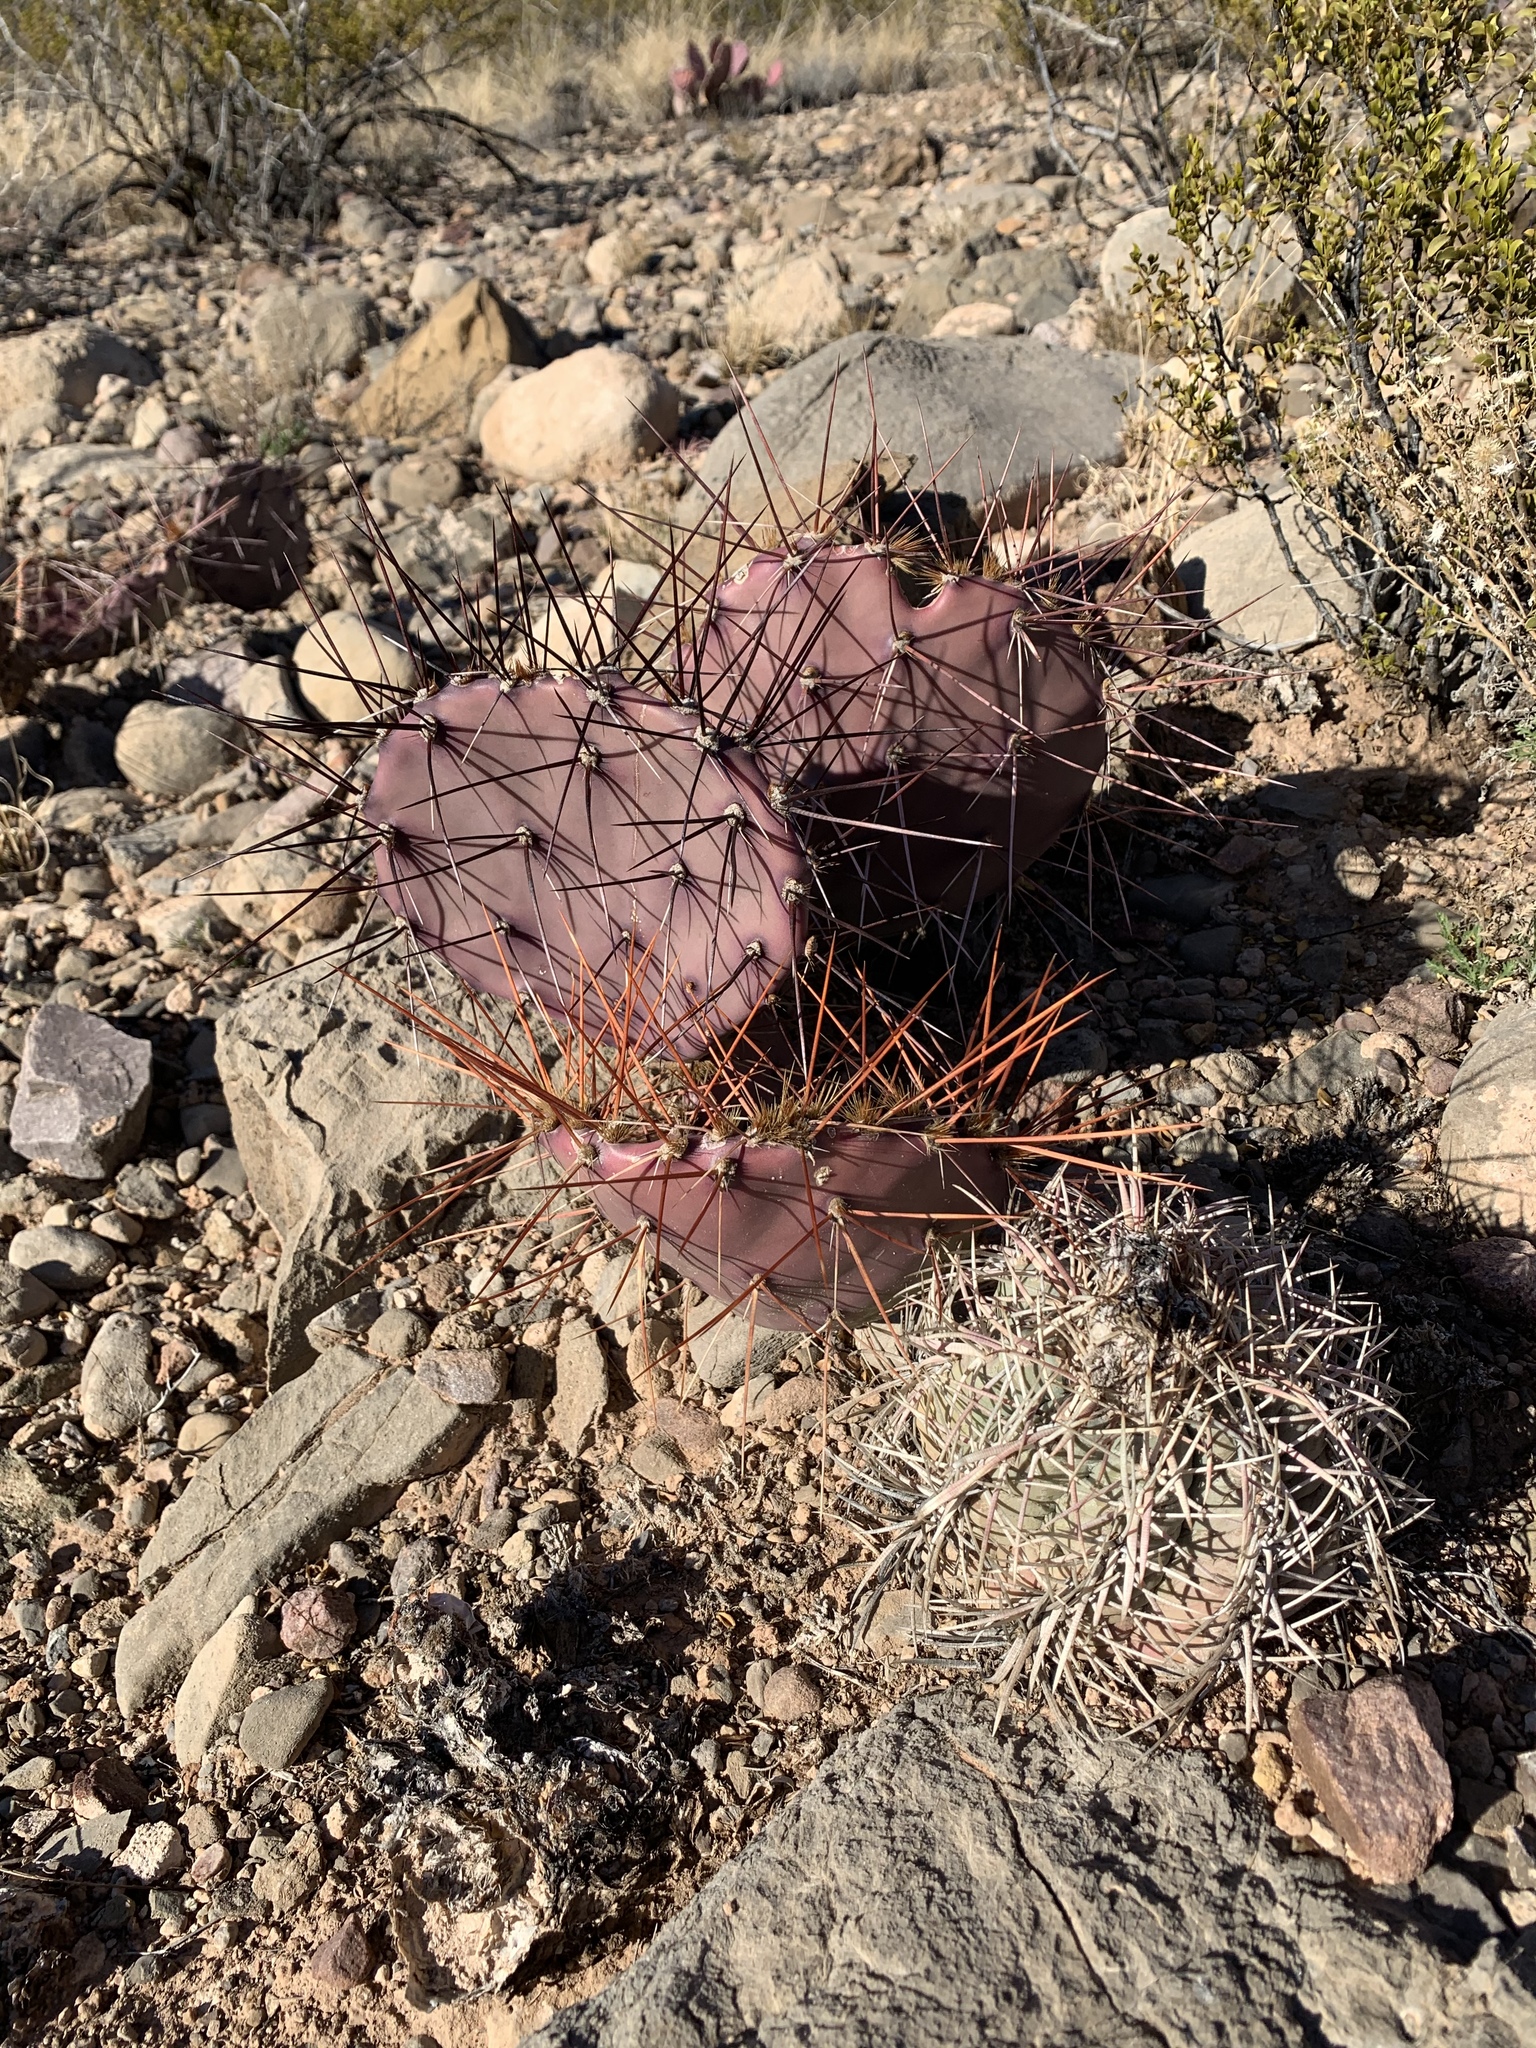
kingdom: Plantae
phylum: Tracheophyta
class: Magnoliopsida
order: Caryophyllales
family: Cactaceae
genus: Opuntia
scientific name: Opuntia macrocentra
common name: Purple prickly-pear
